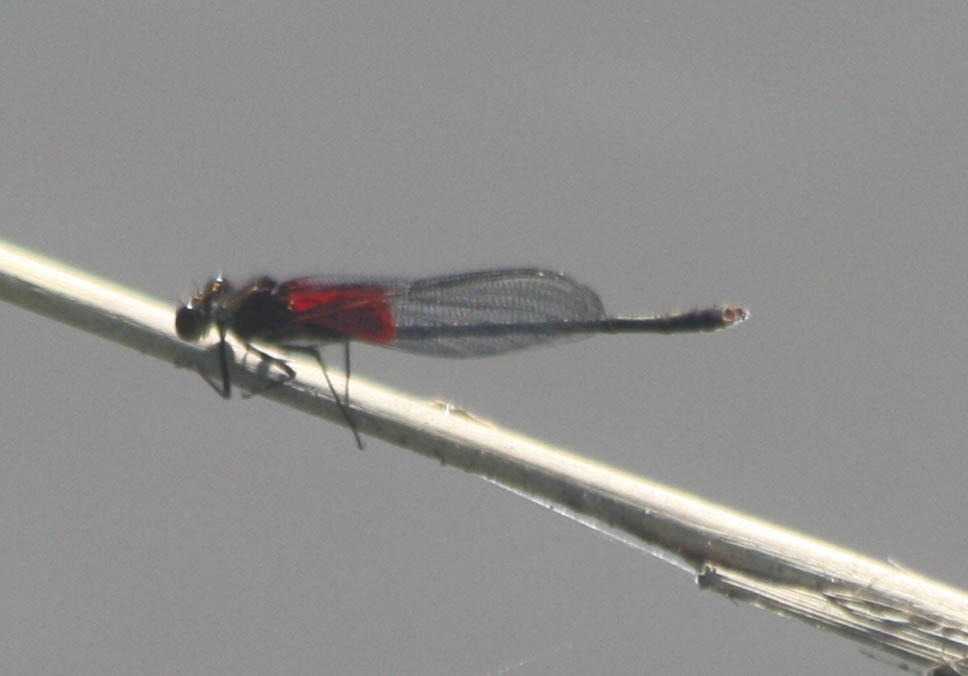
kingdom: Animalia
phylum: Arthropoda
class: Insecta
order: Odonata
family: Calopterygidae
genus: Hetaerina
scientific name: Hetaerina americana
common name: American rubyspot
